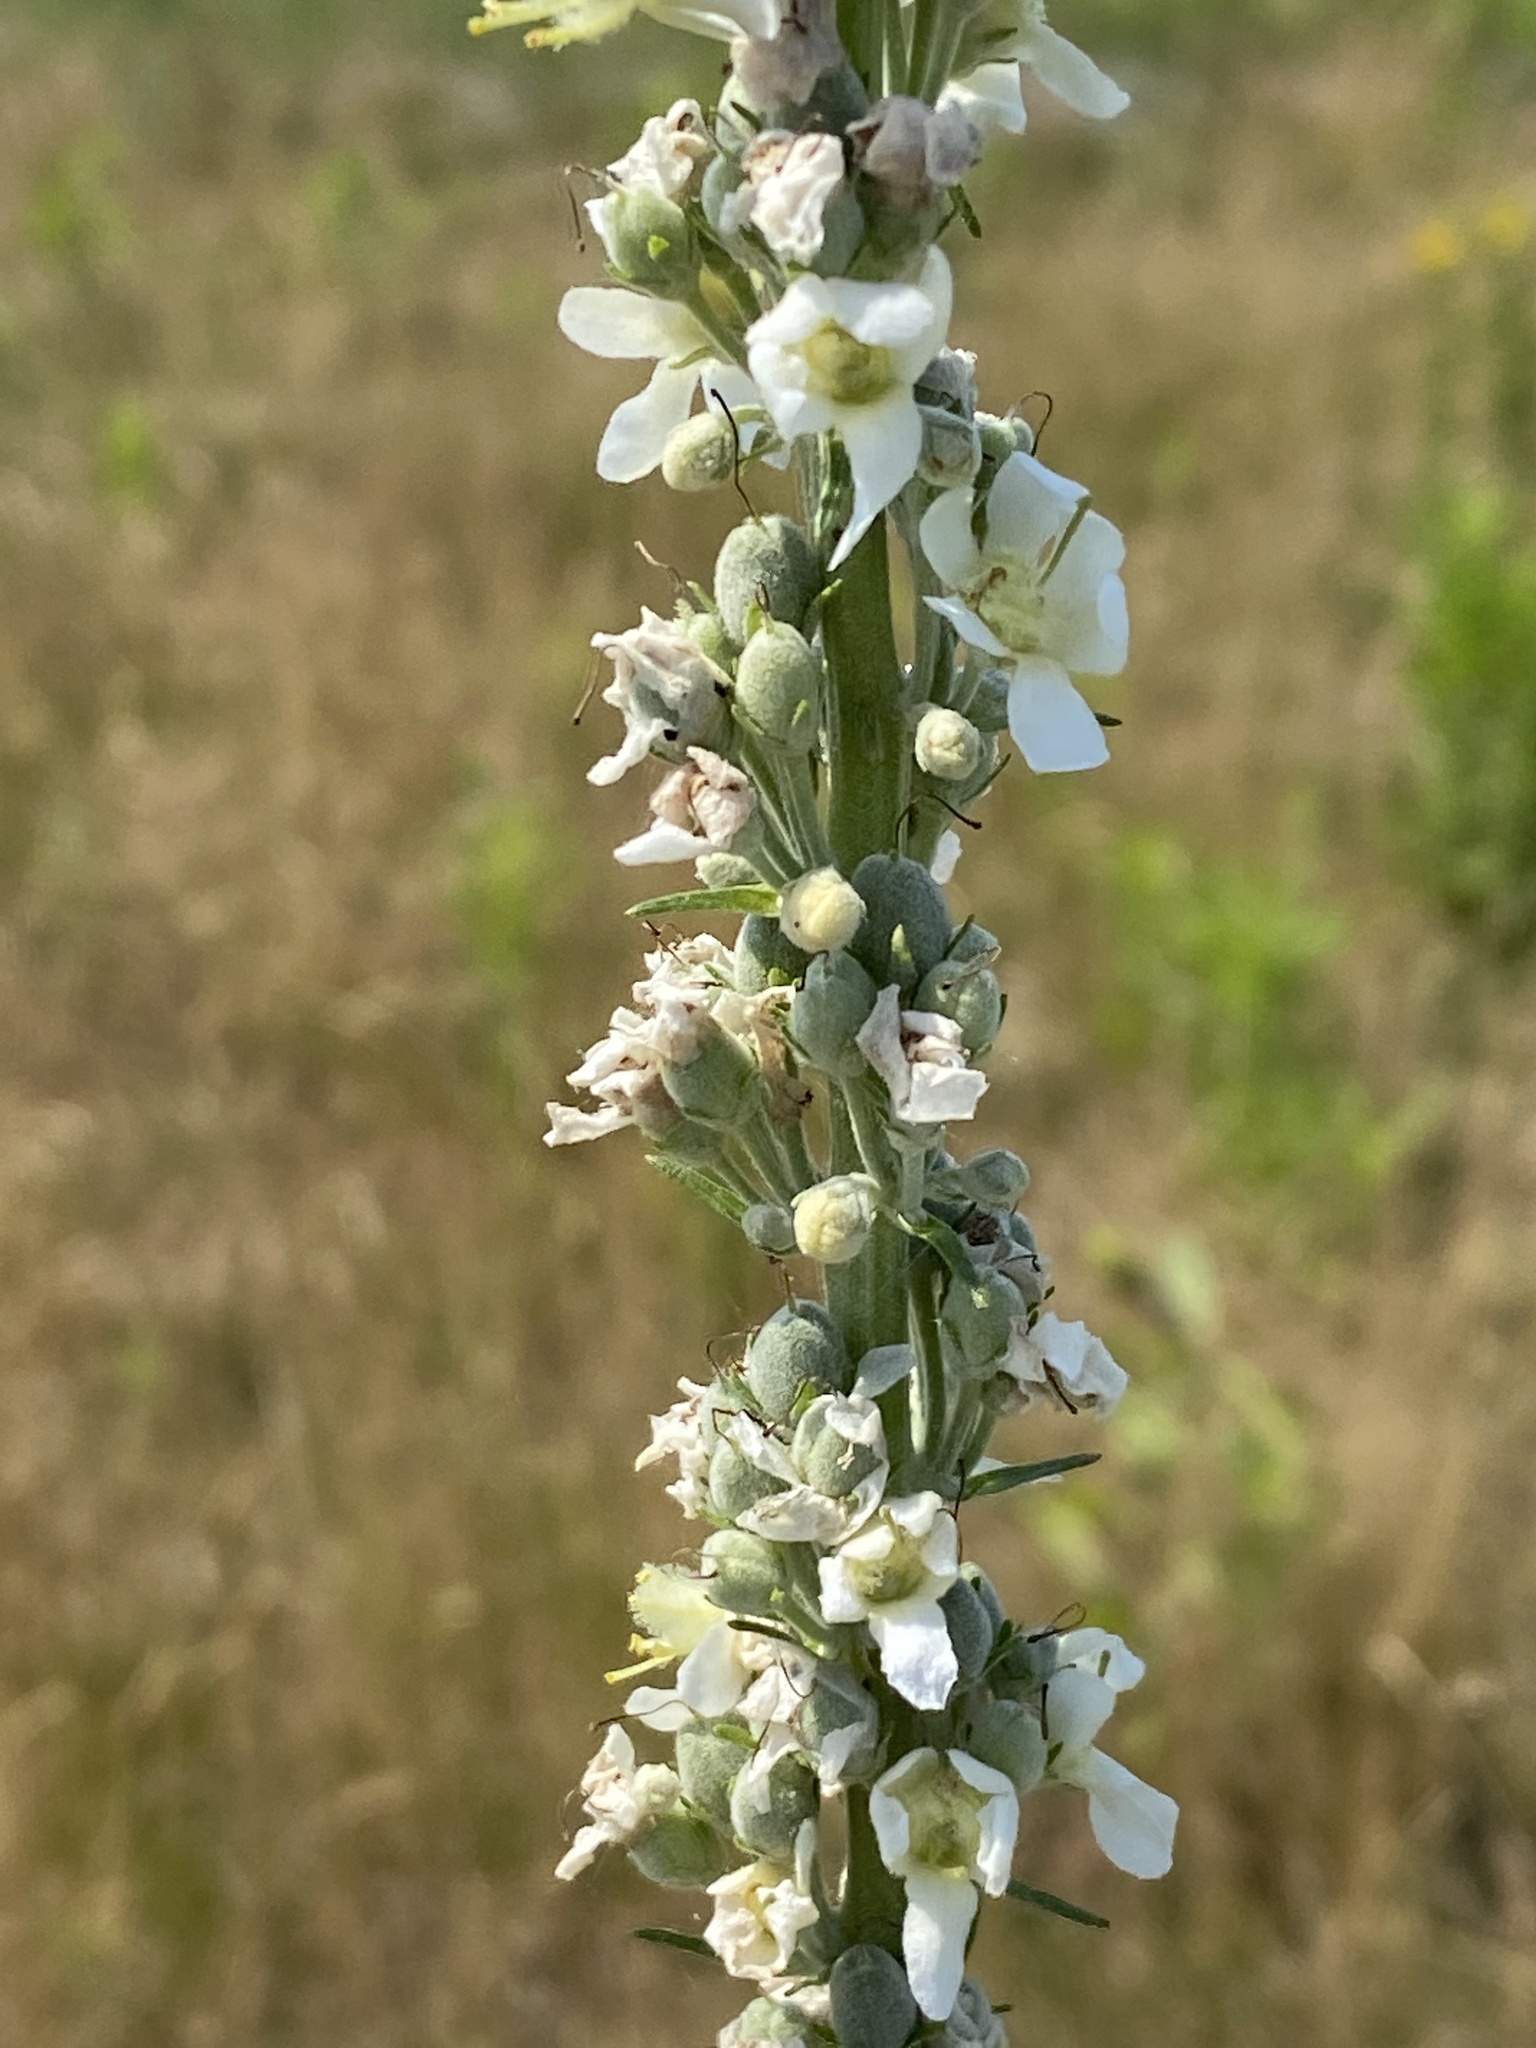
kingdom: Plantae
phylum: Tracheophyta
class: Magnoliopsida
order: Lamiales
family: Scrophulariaceae
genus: Verbascum
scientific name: Verbascum lychnitis
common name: White mullein
